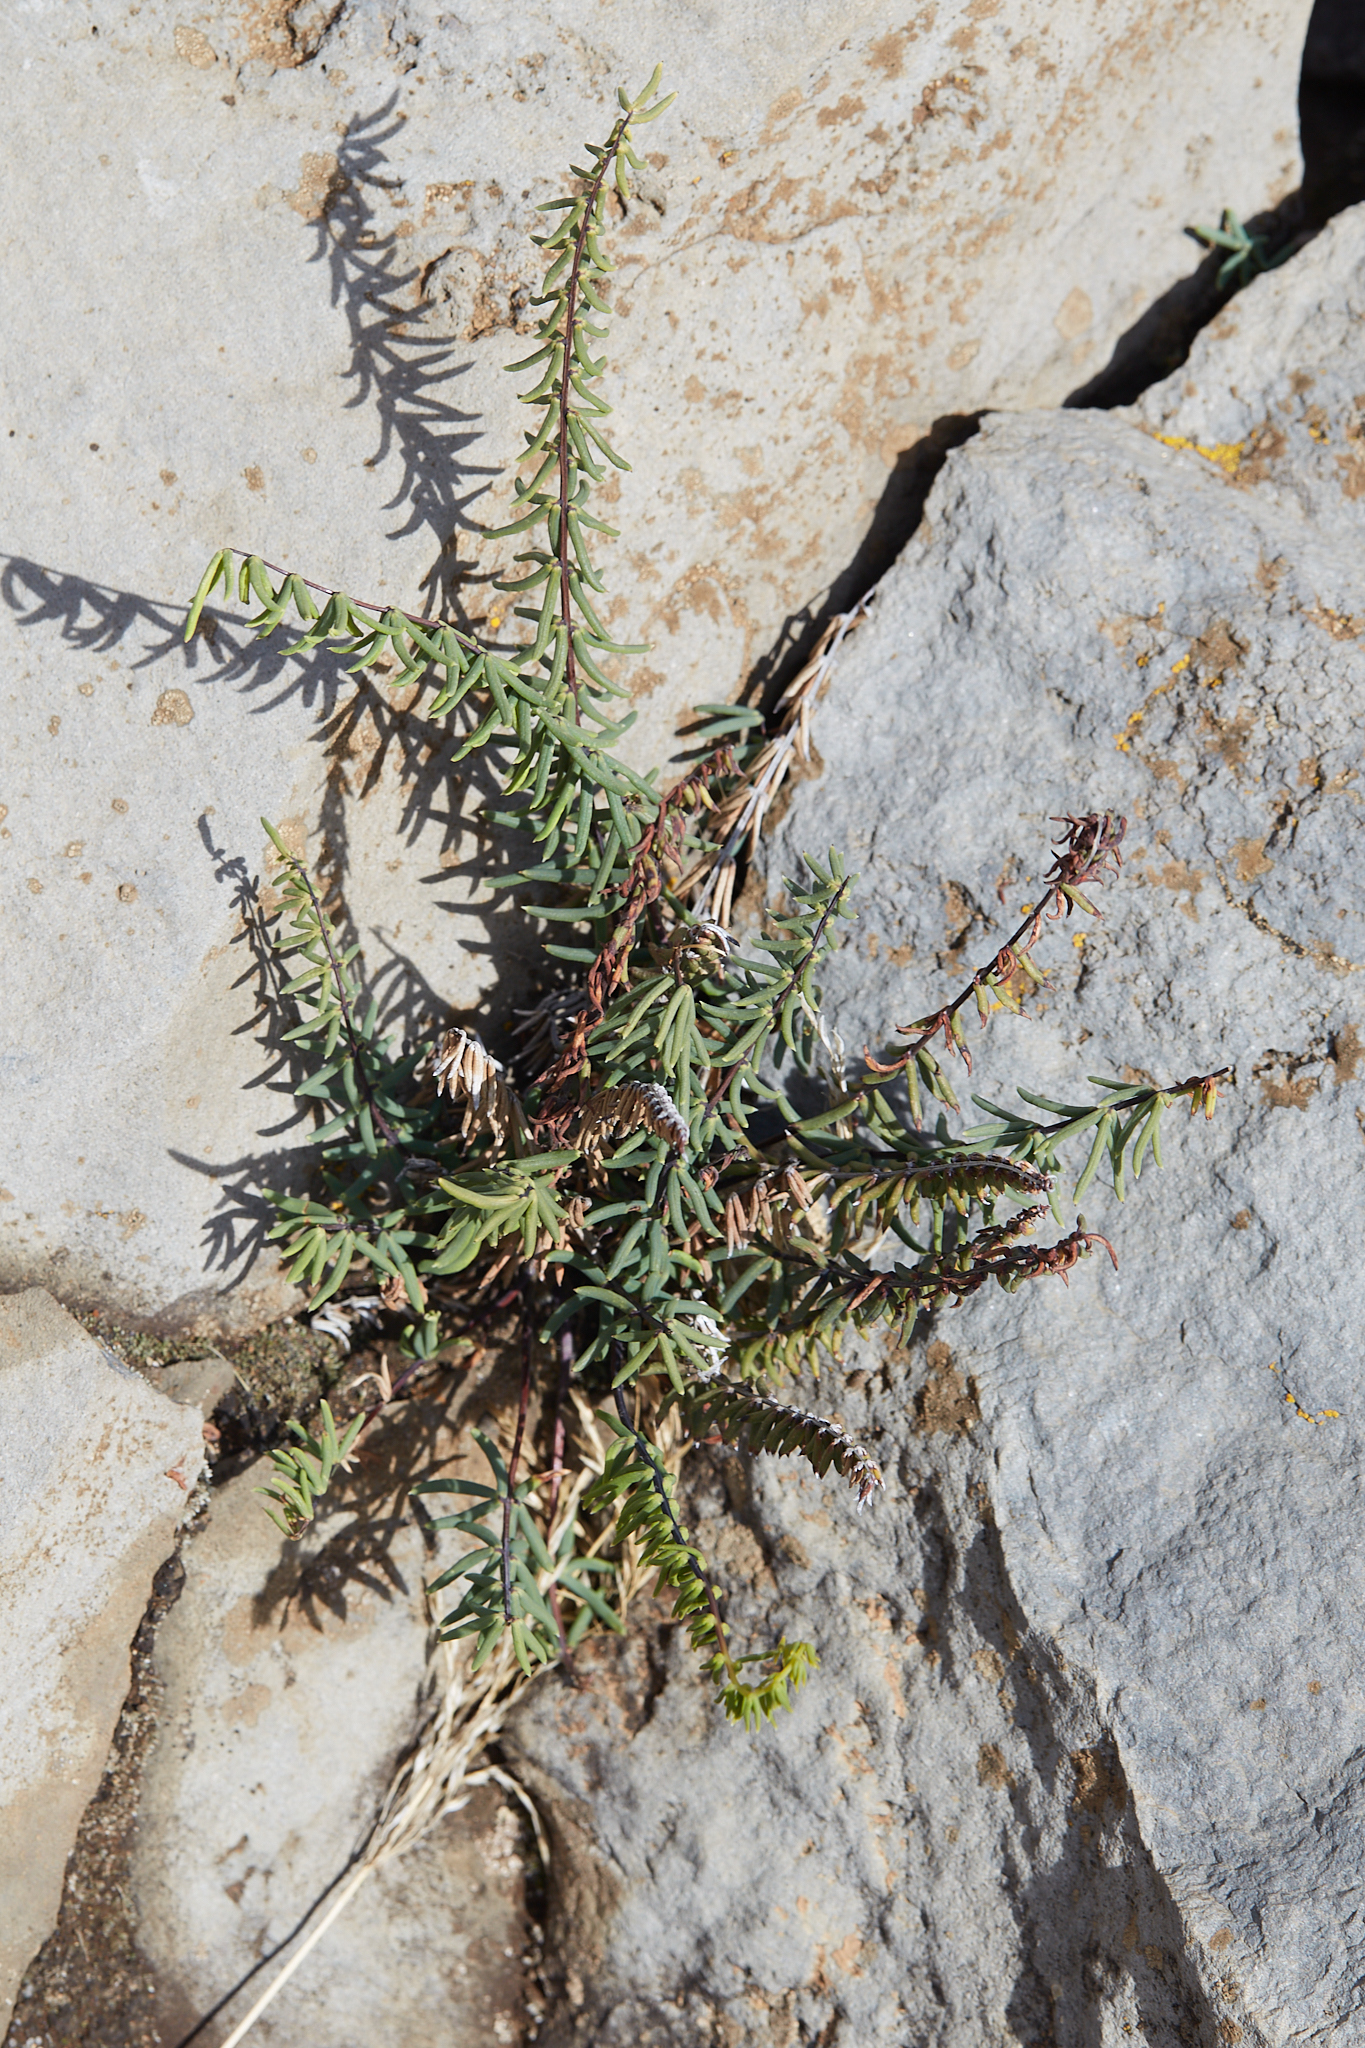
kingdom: Plantae
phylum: Tracheophyta
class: Polypodiopsida
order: Polypodiales
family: Pteridaceae
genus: Pellaea
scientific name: Pellaea ternifolia
